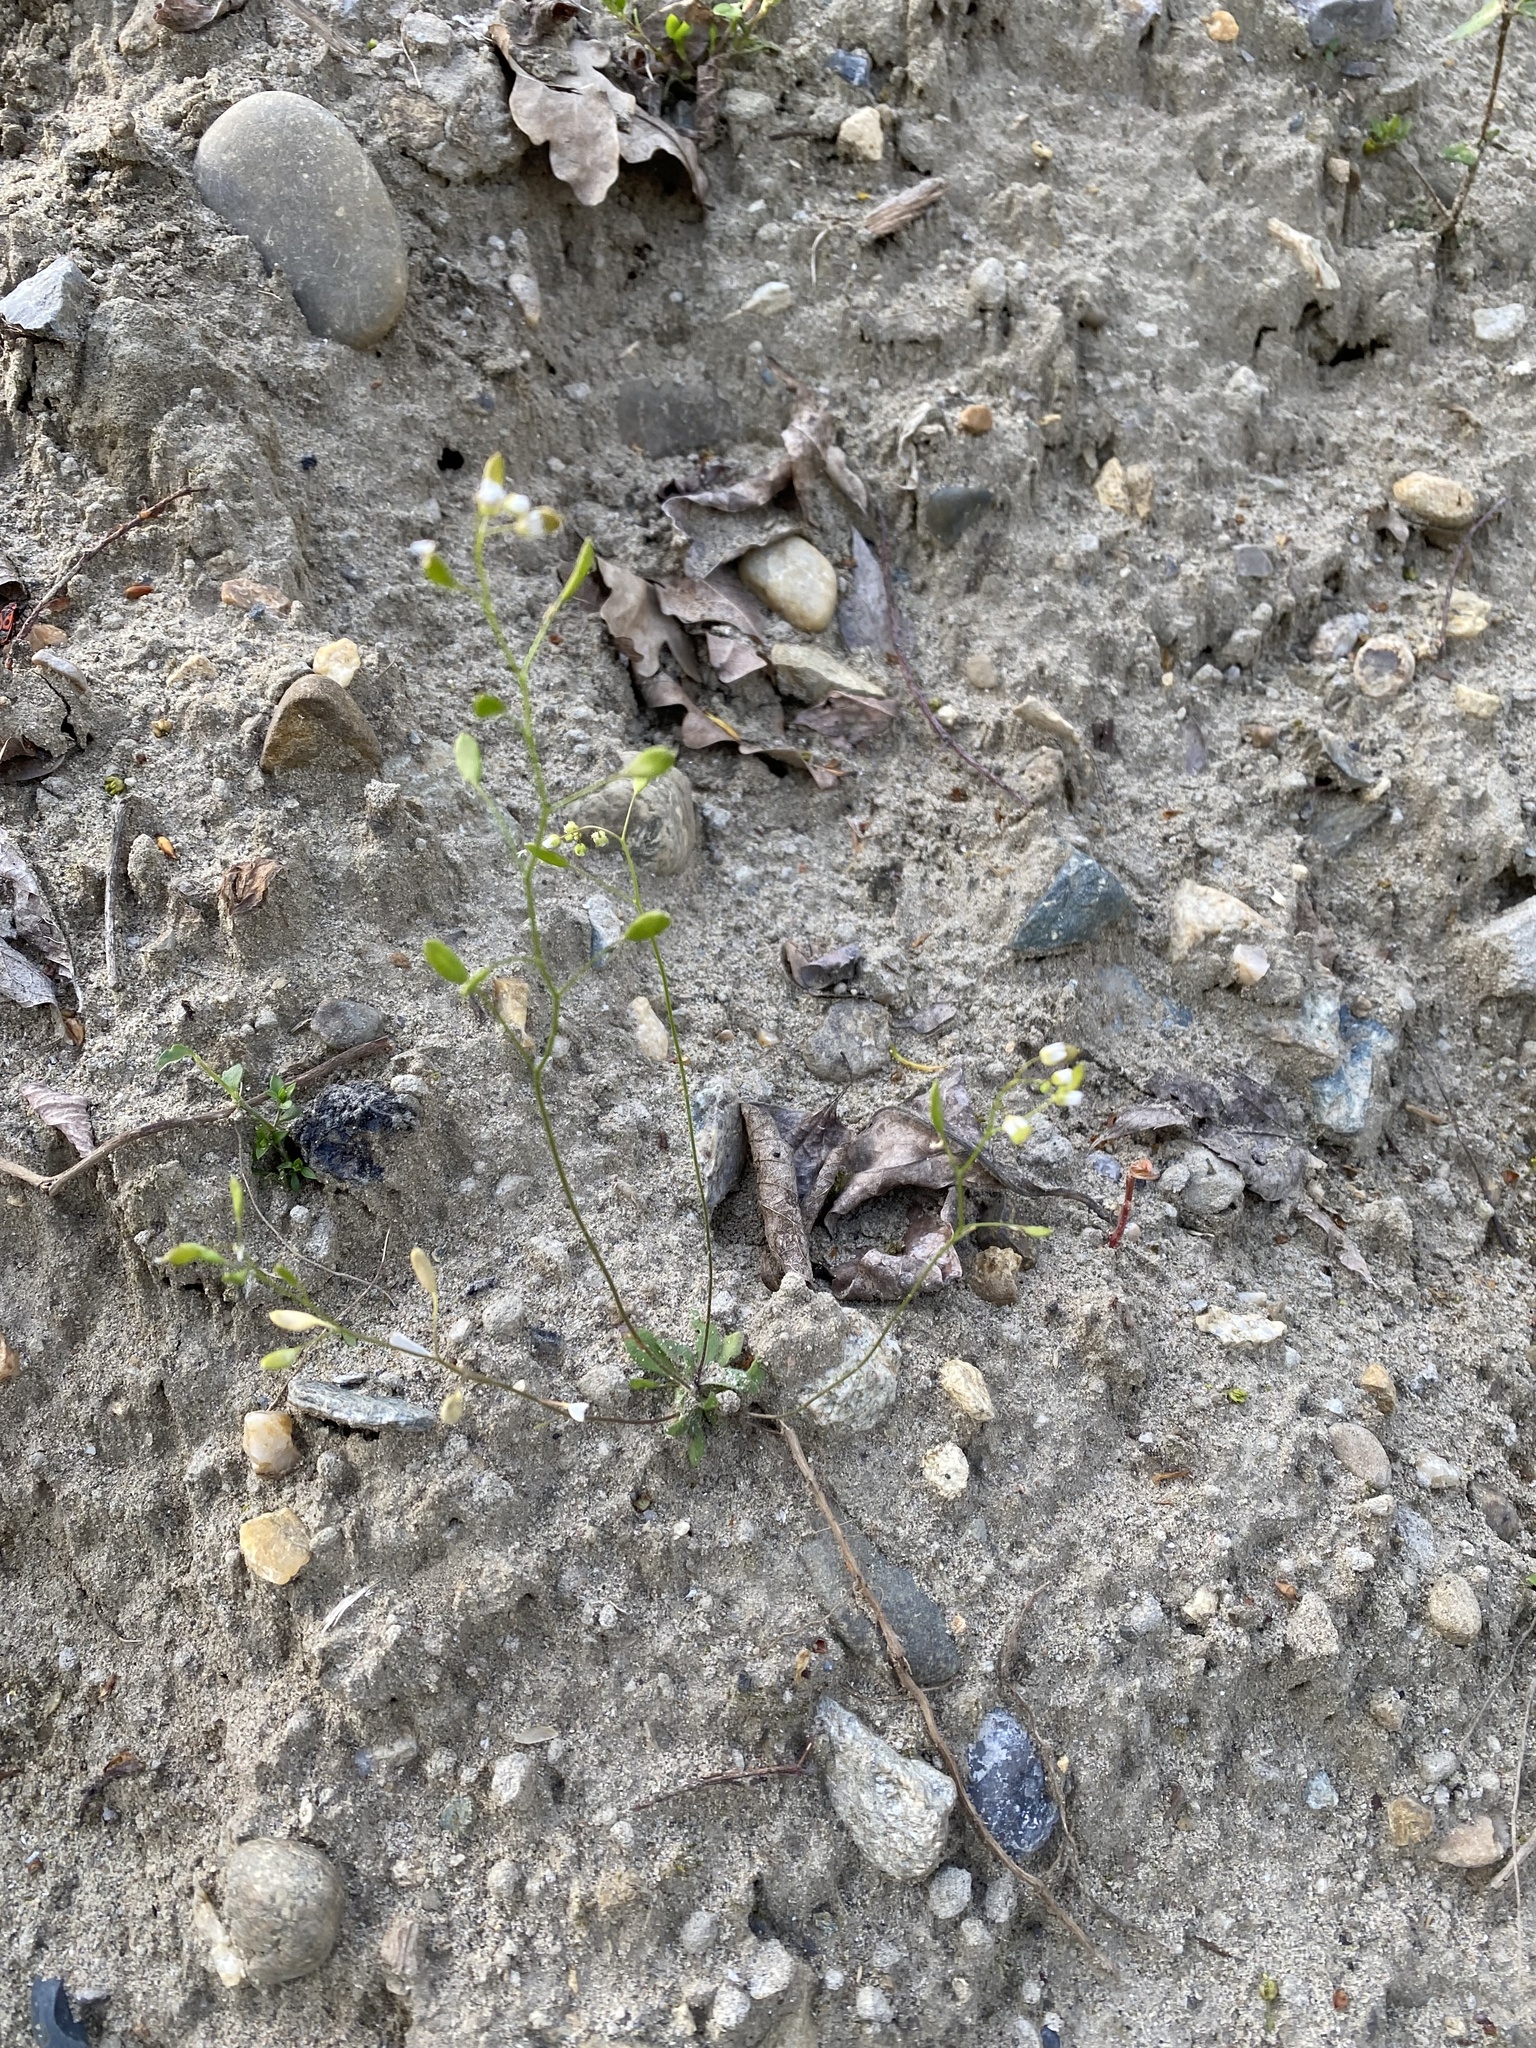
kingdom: Plantae
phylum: Tracheophyta
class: Magnoliopsida
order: Brassicales
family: Brassicaceae
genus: Draba
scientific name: Draba verna
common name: Spring draba
